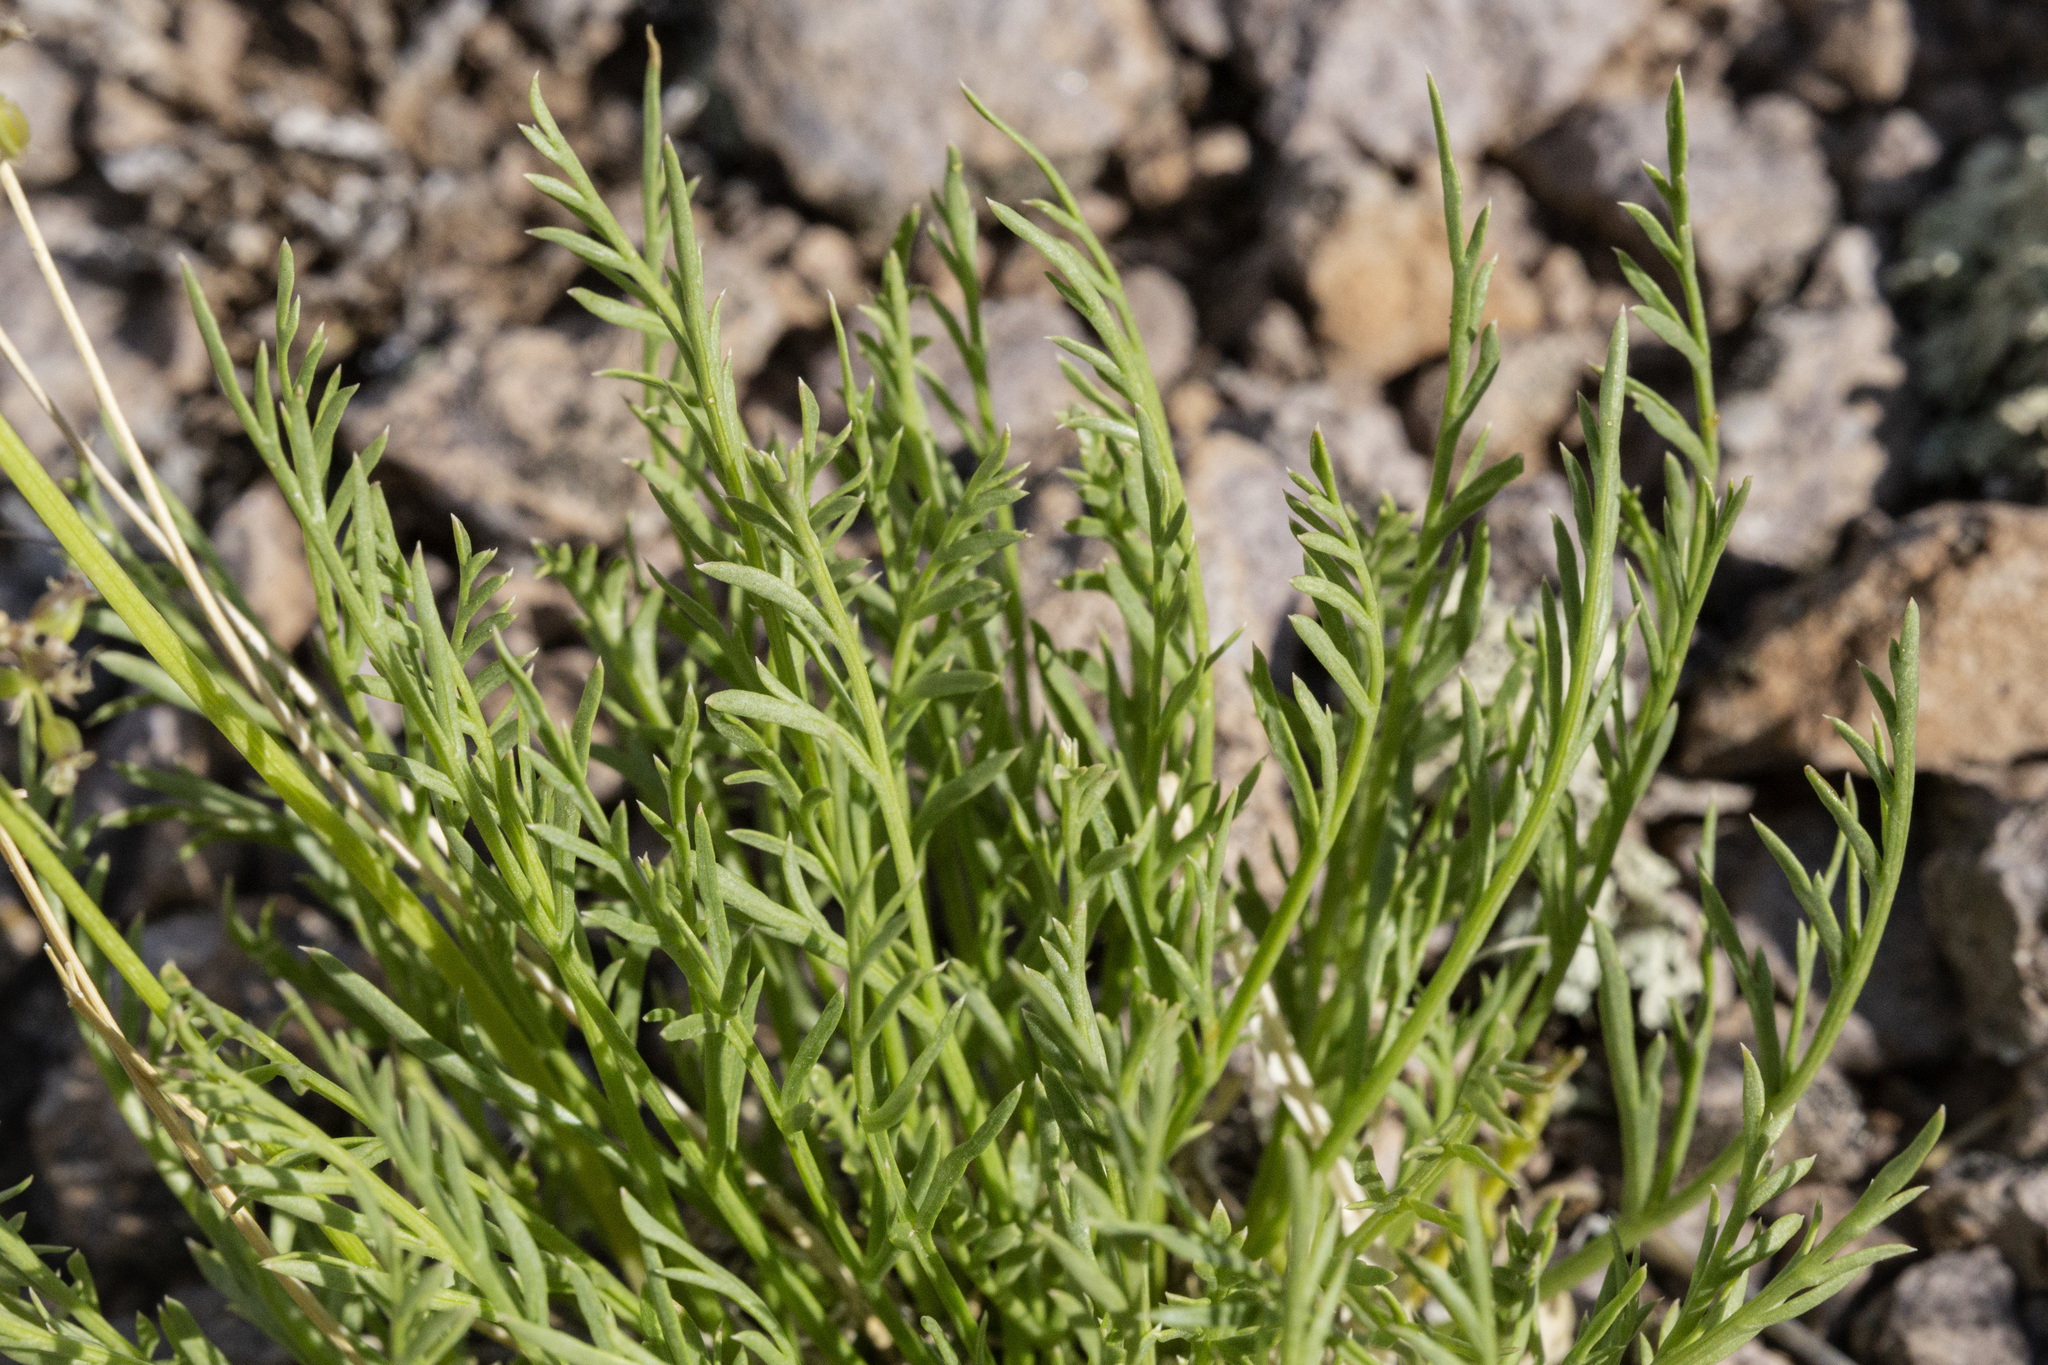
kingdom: Plantae
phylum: Tracheophyta
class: Magnoliopsida
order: Apiales
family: Apiaceae
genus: Neoparrya
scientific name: Neoparrya lithophila
